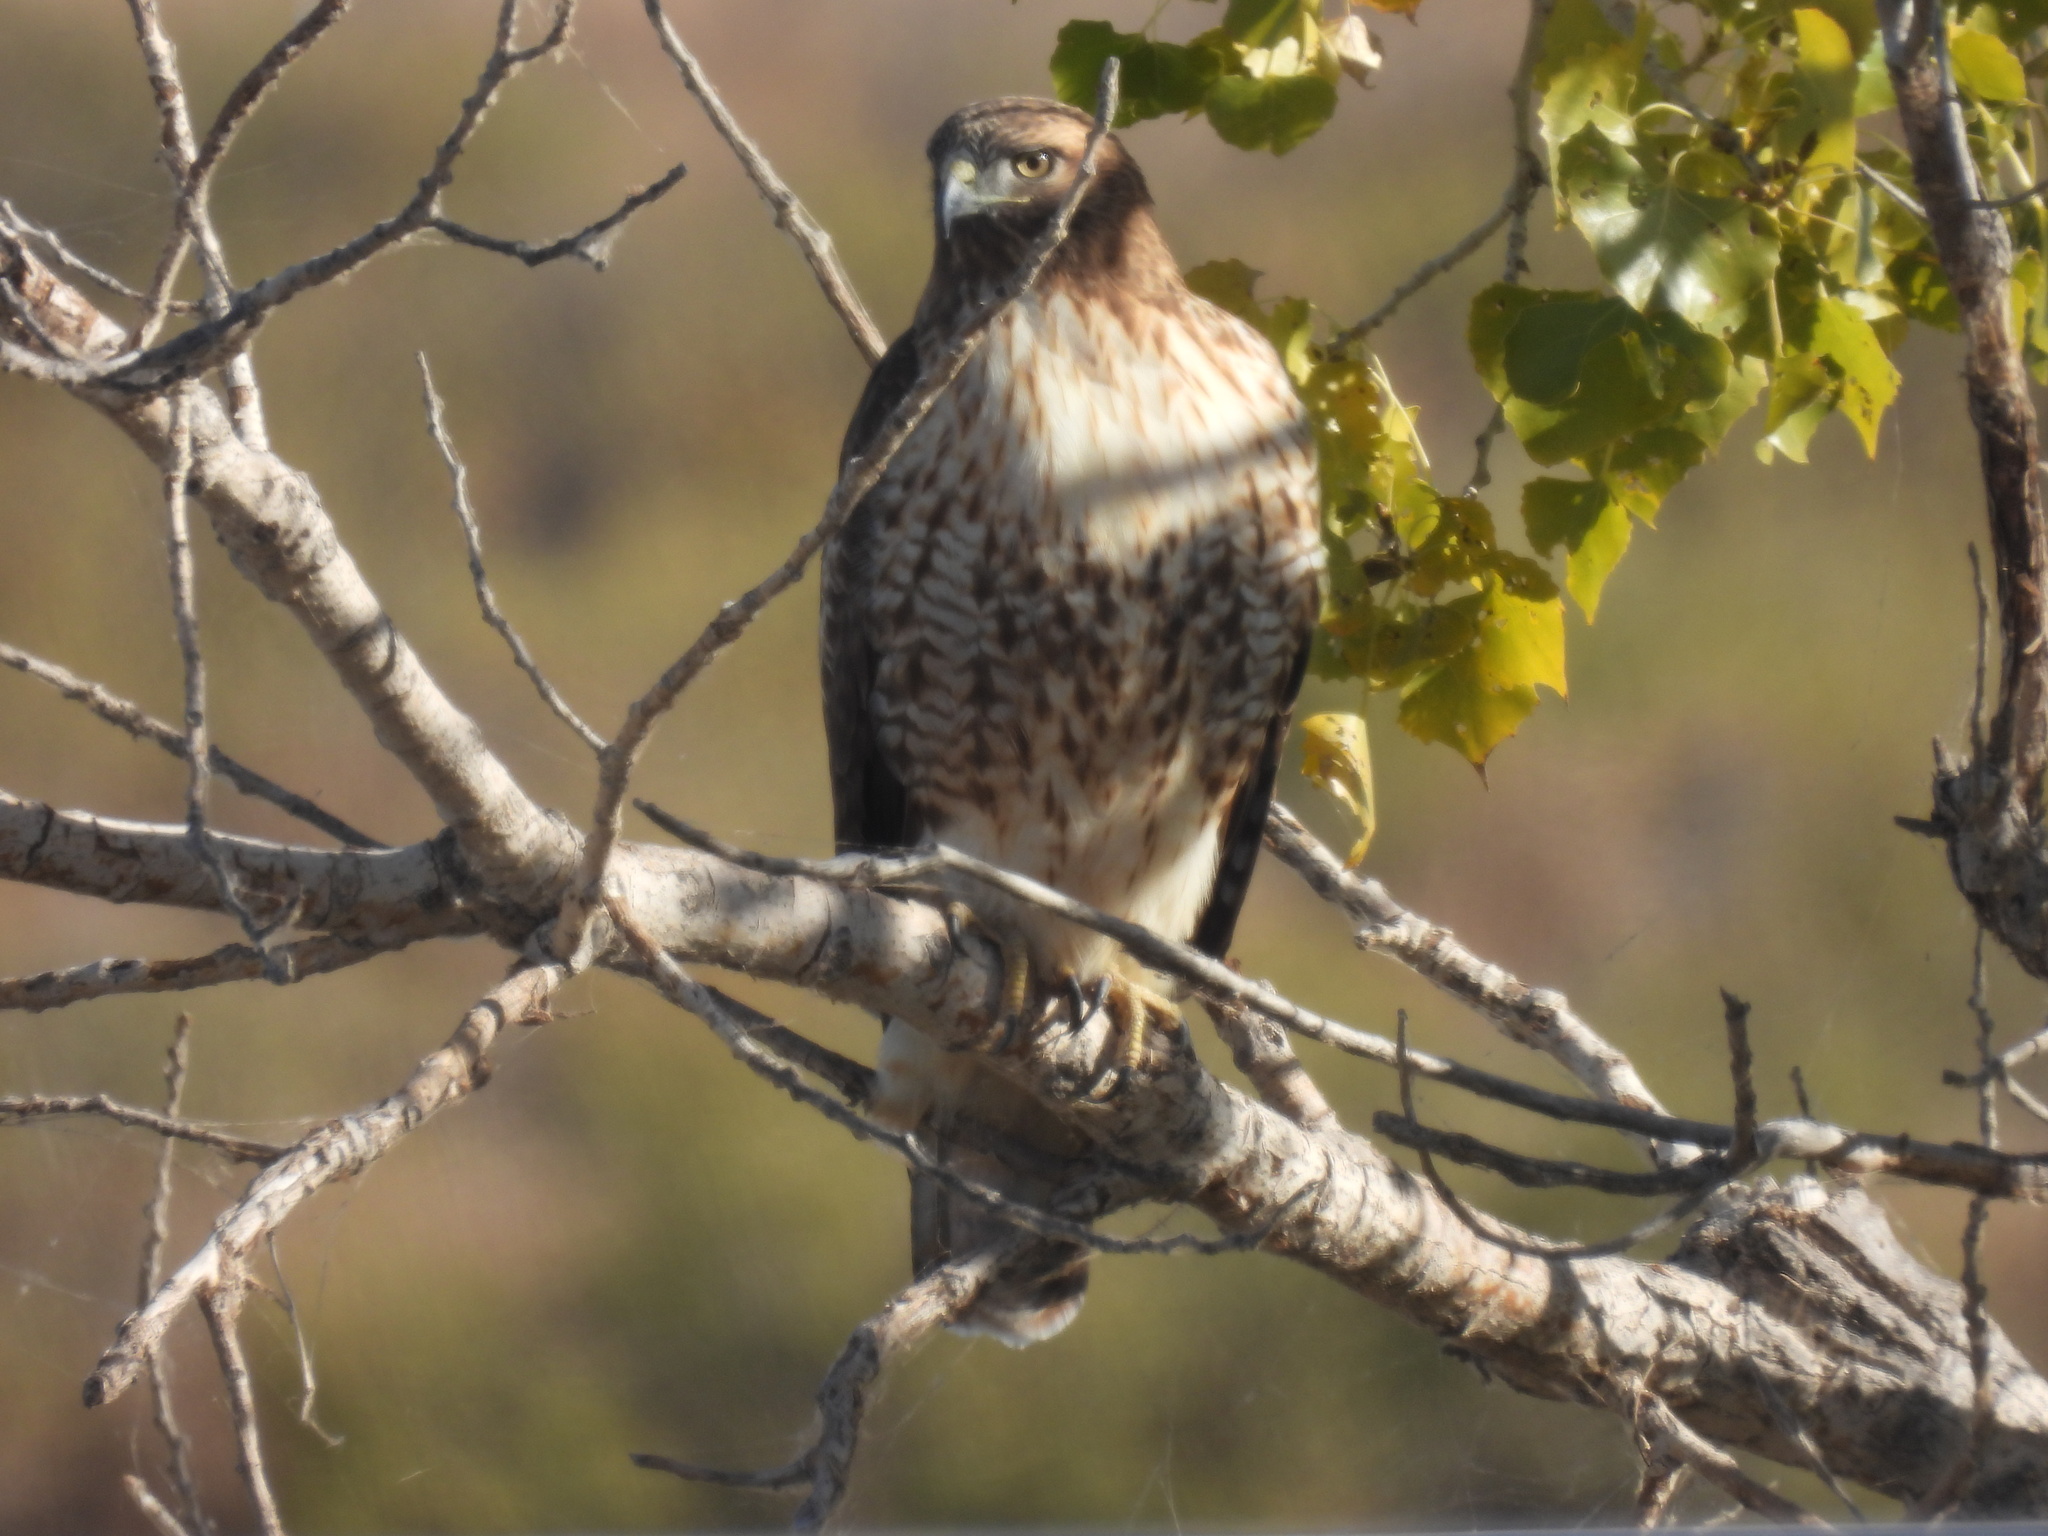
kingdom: Animalia
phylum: Chordata
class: Aves
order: Accipitriformes
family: Accipitridae
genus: Buteo
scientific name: Buteo jamaicensis
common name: Red-tailed hawk
